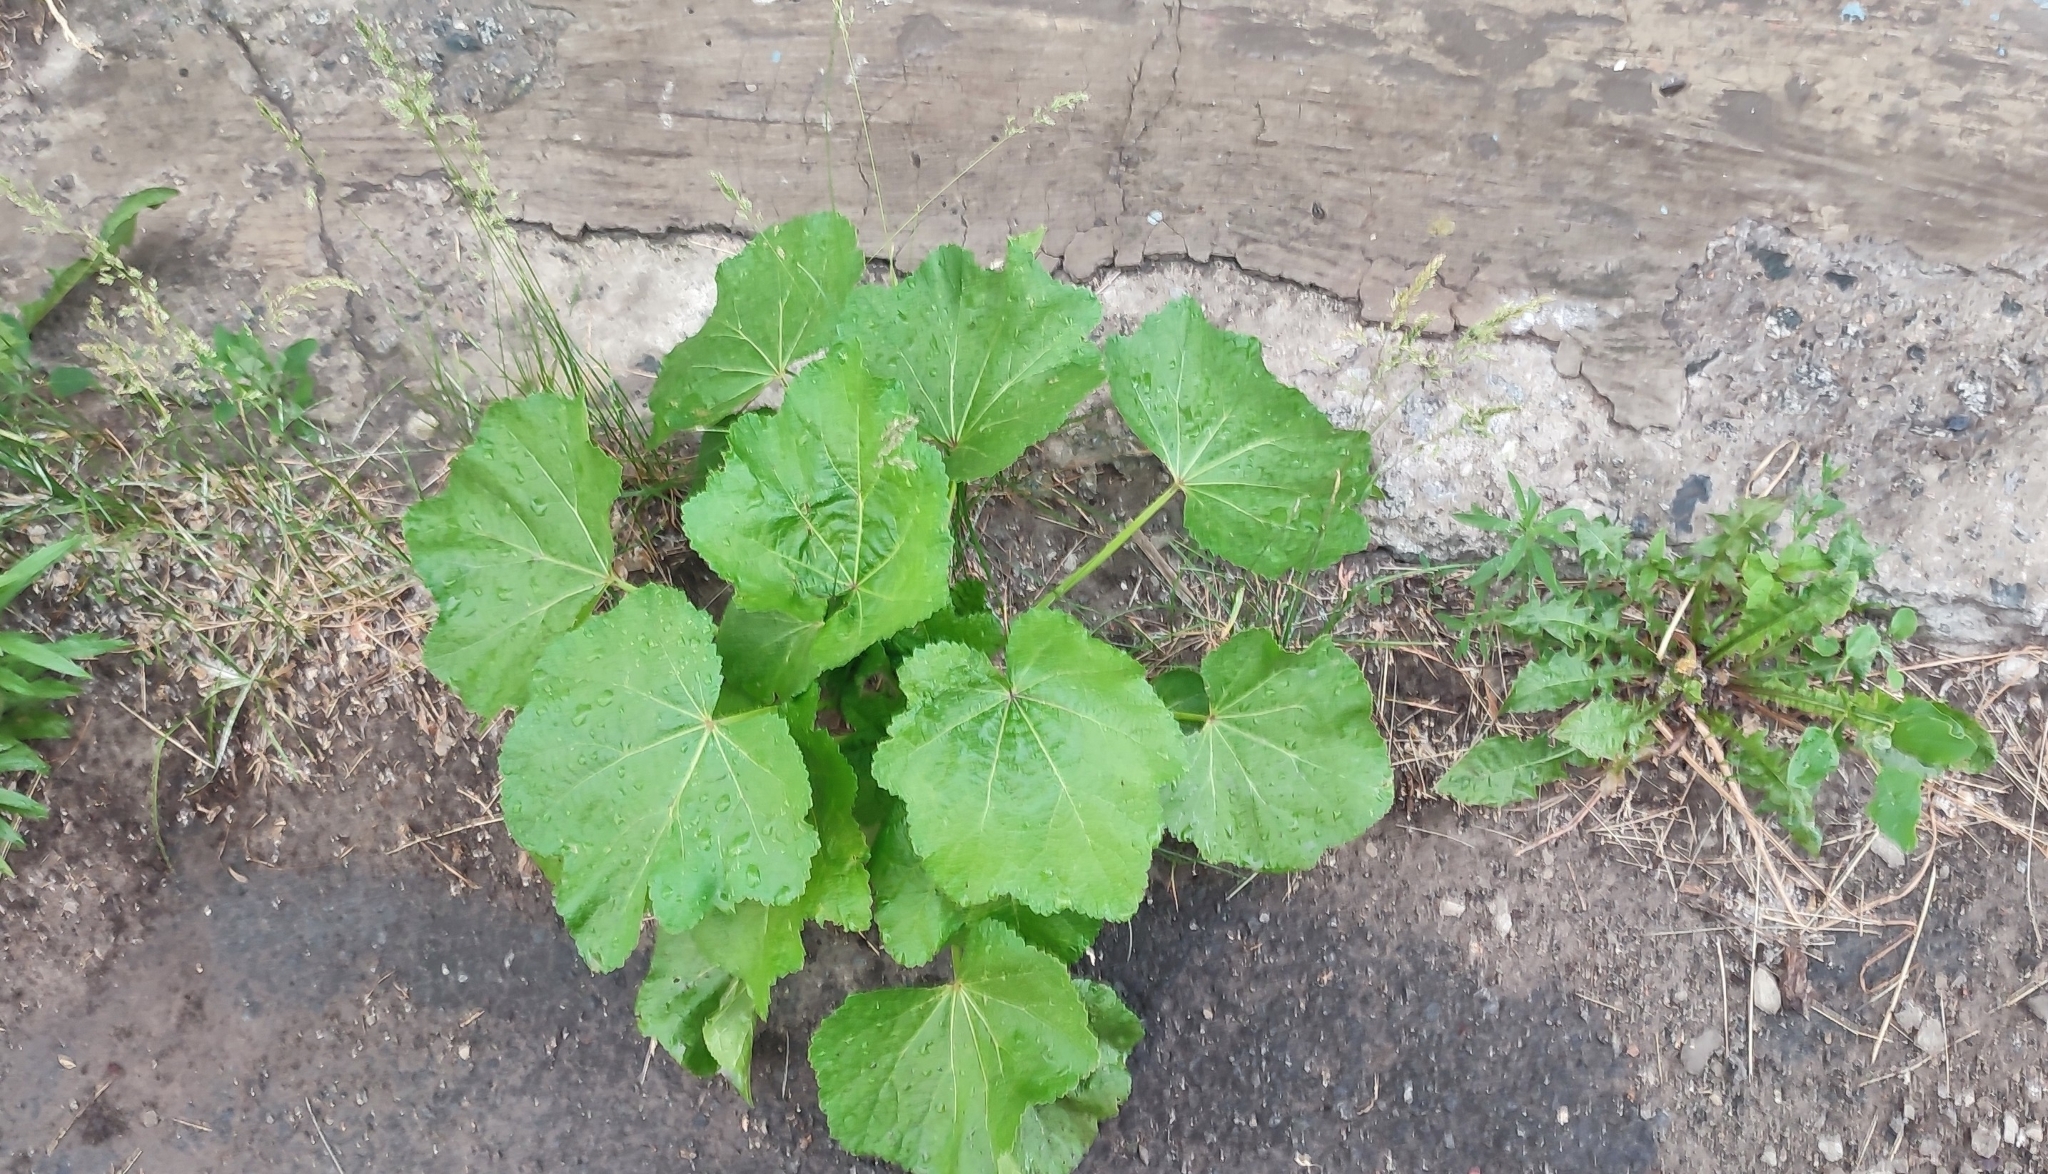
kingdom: Plantae
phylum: Tracheophyta
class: Magnoliopsida
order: Malvales
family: Malvaceae
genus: Alcea
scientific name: Alcea rosea
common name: Hollyhock
